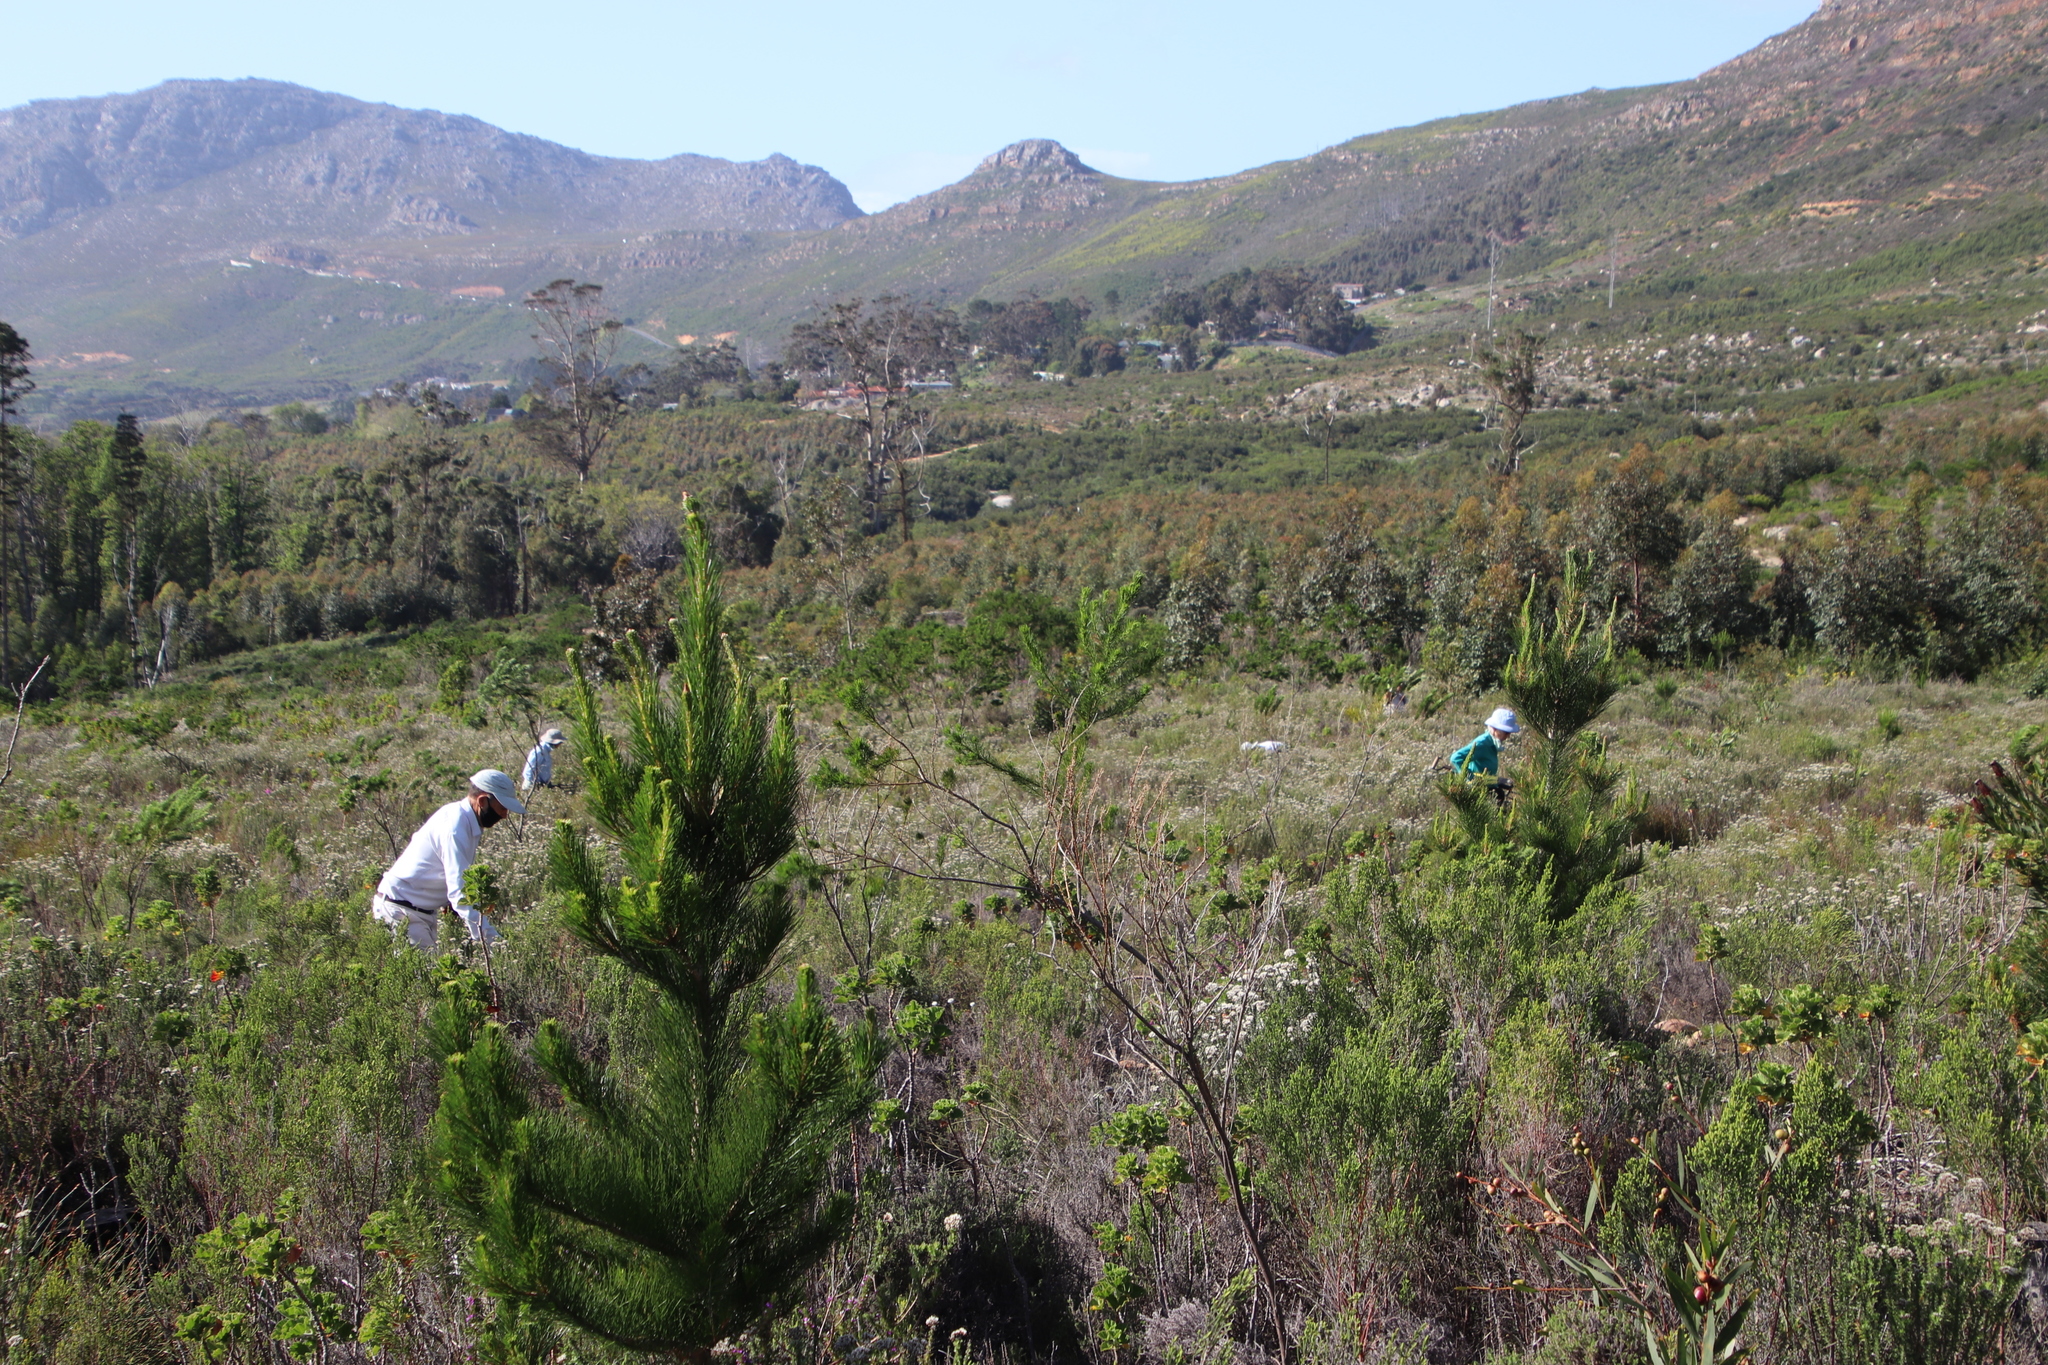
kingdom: Plantae
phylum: Tracheophyta
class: Pinopsida
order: Pinales
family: Pinaceae
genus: Pinus
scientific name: Pinus radiata
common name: Monterey pine
